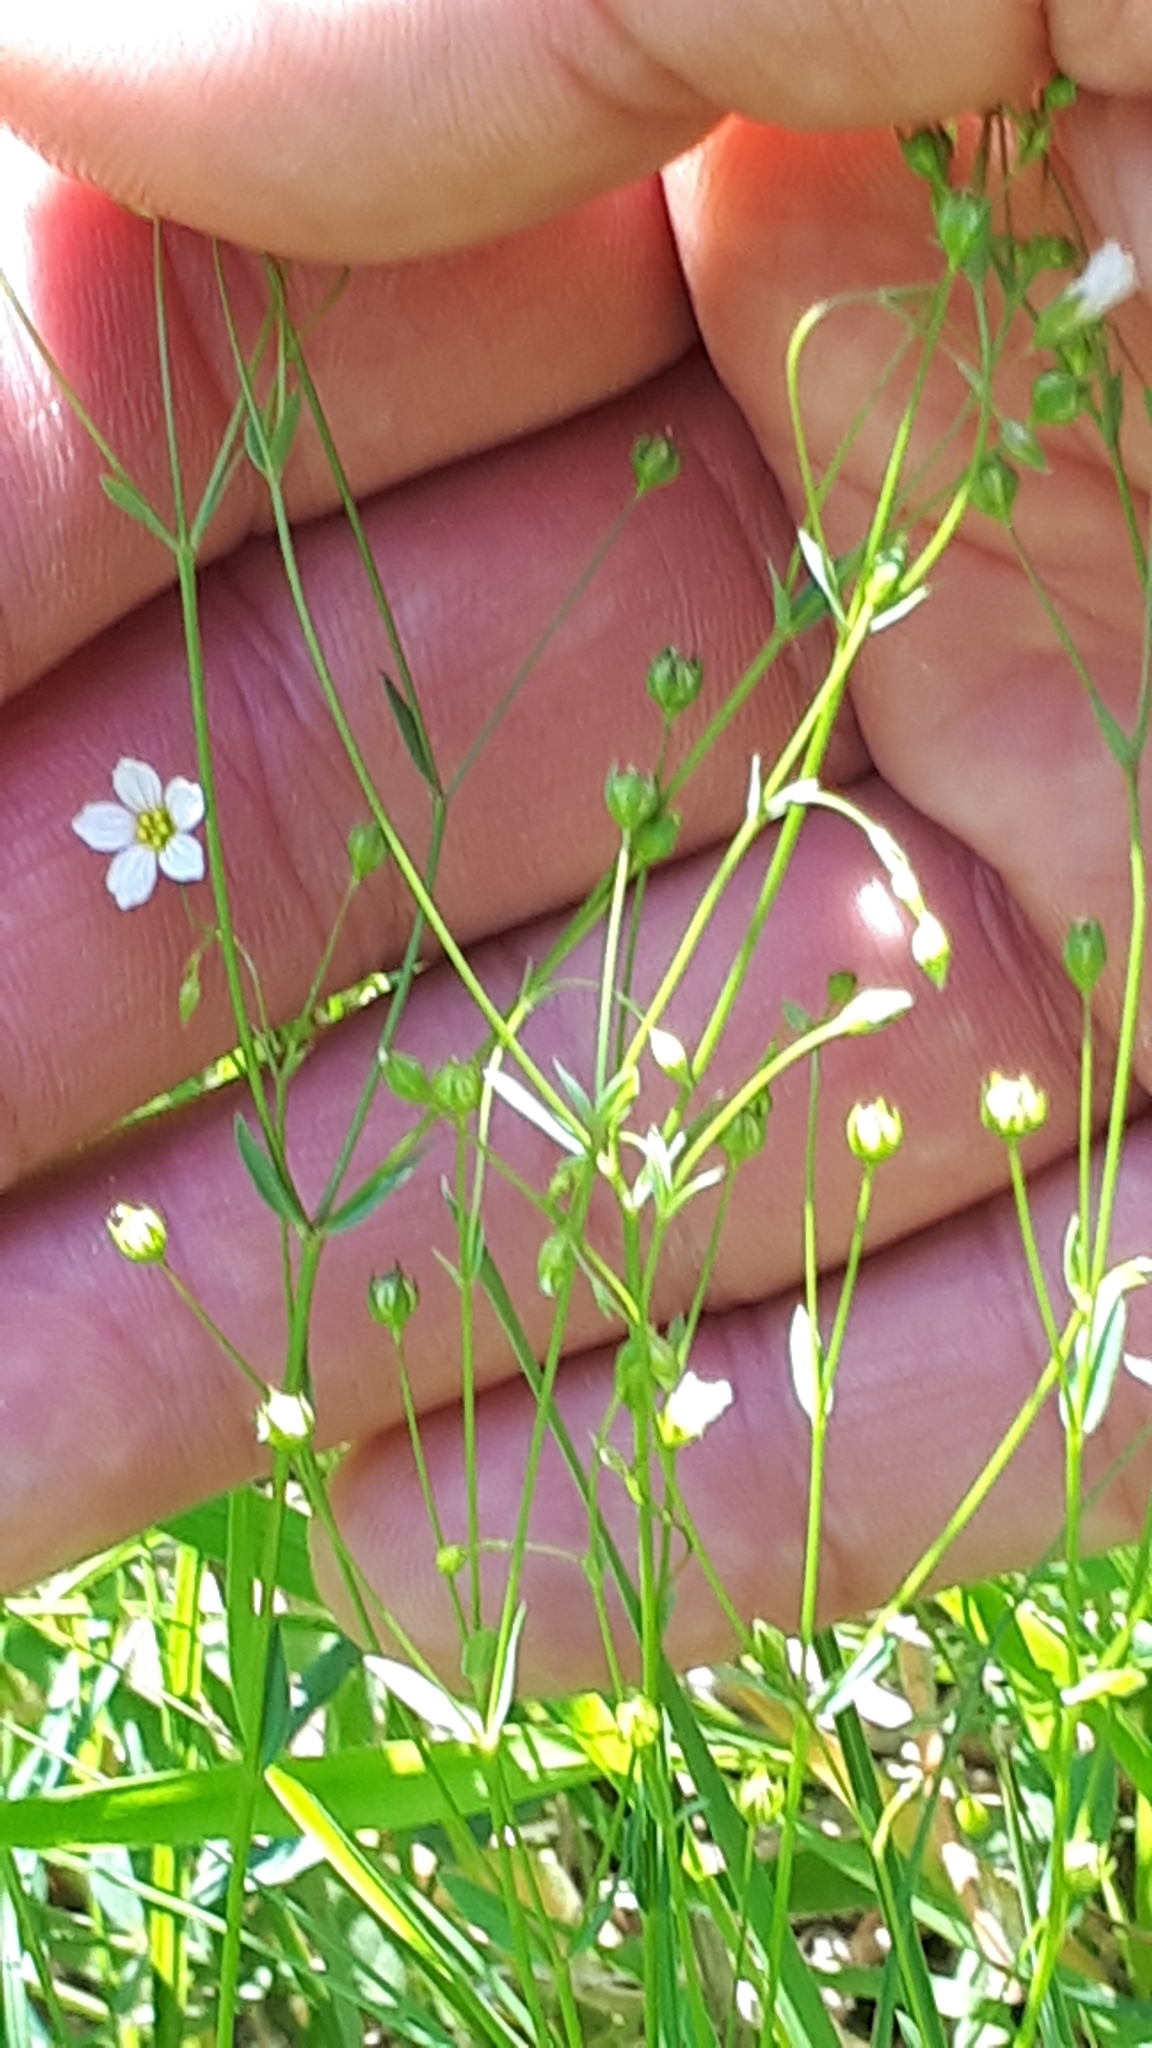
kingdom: Plantae
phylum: Tracheophyta
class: Magnoliopsida
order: Malpighiales
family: Linaceae
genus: Linum
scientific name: Linum catharticum
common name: Fairy flax
